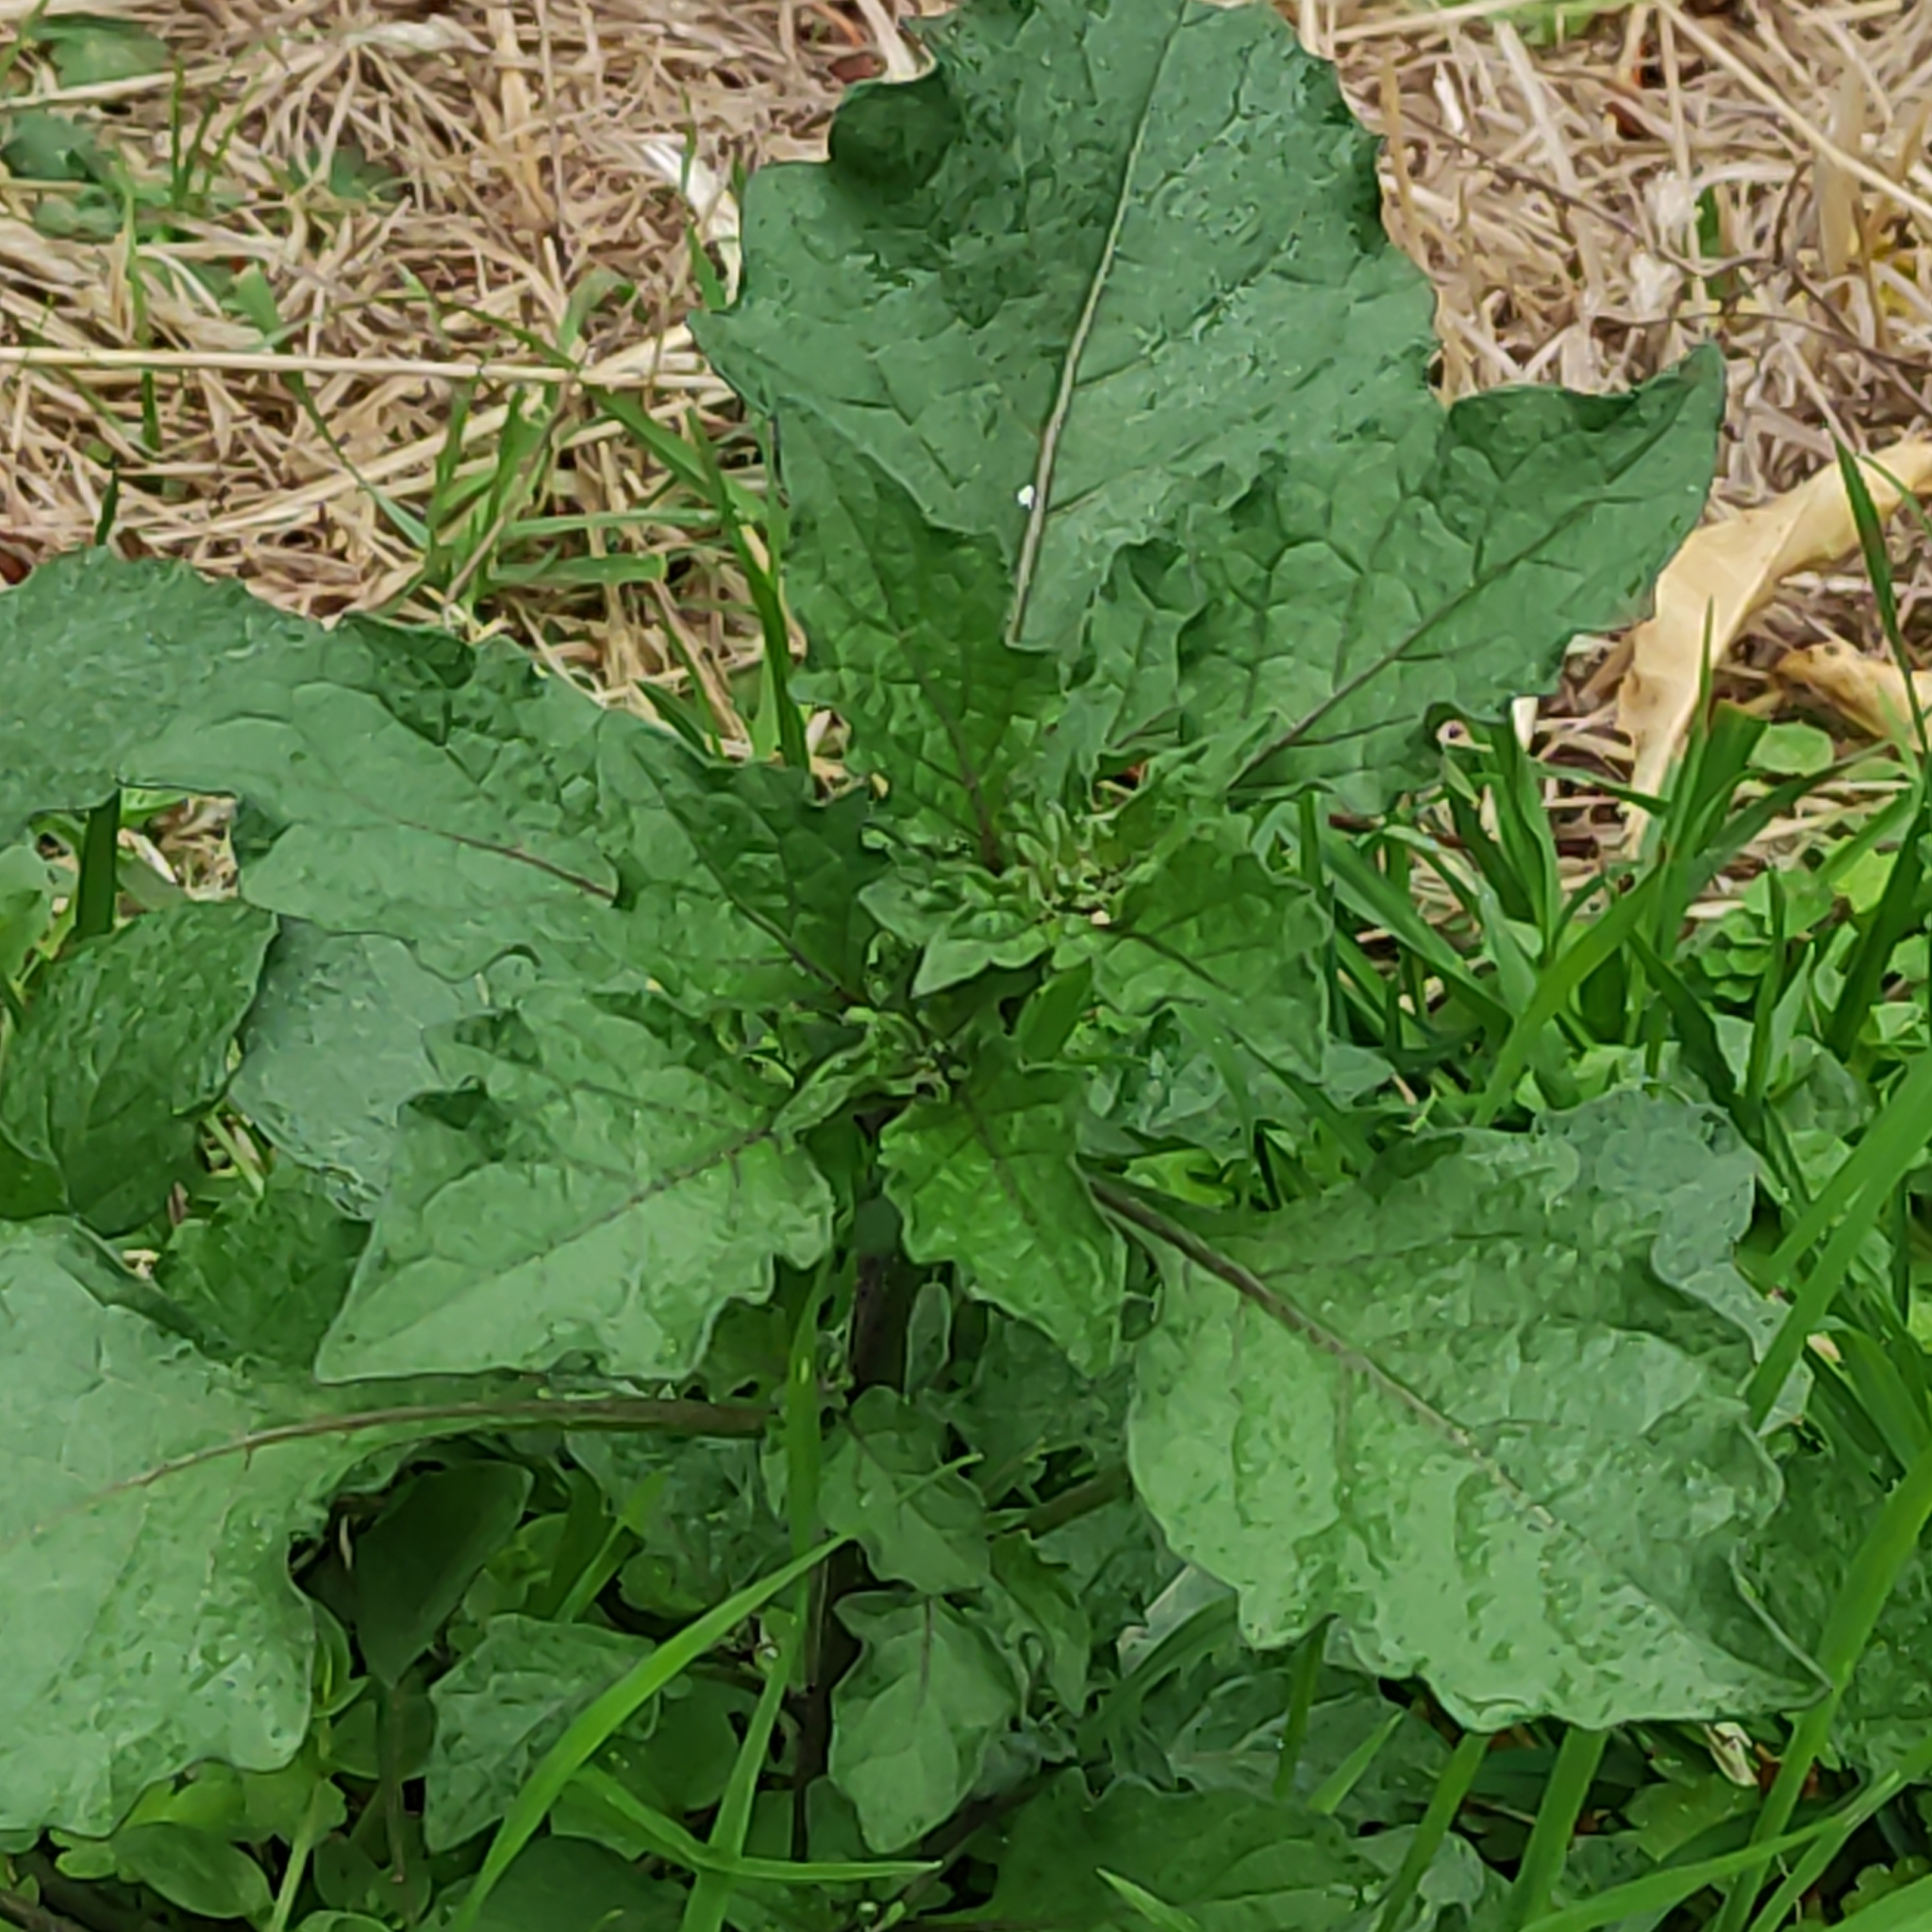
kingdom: Plantae
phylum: Tracheophyta
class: Magnoliopsida
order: Solanales
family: Solanaceae
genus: Solanum
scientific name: Solanum
